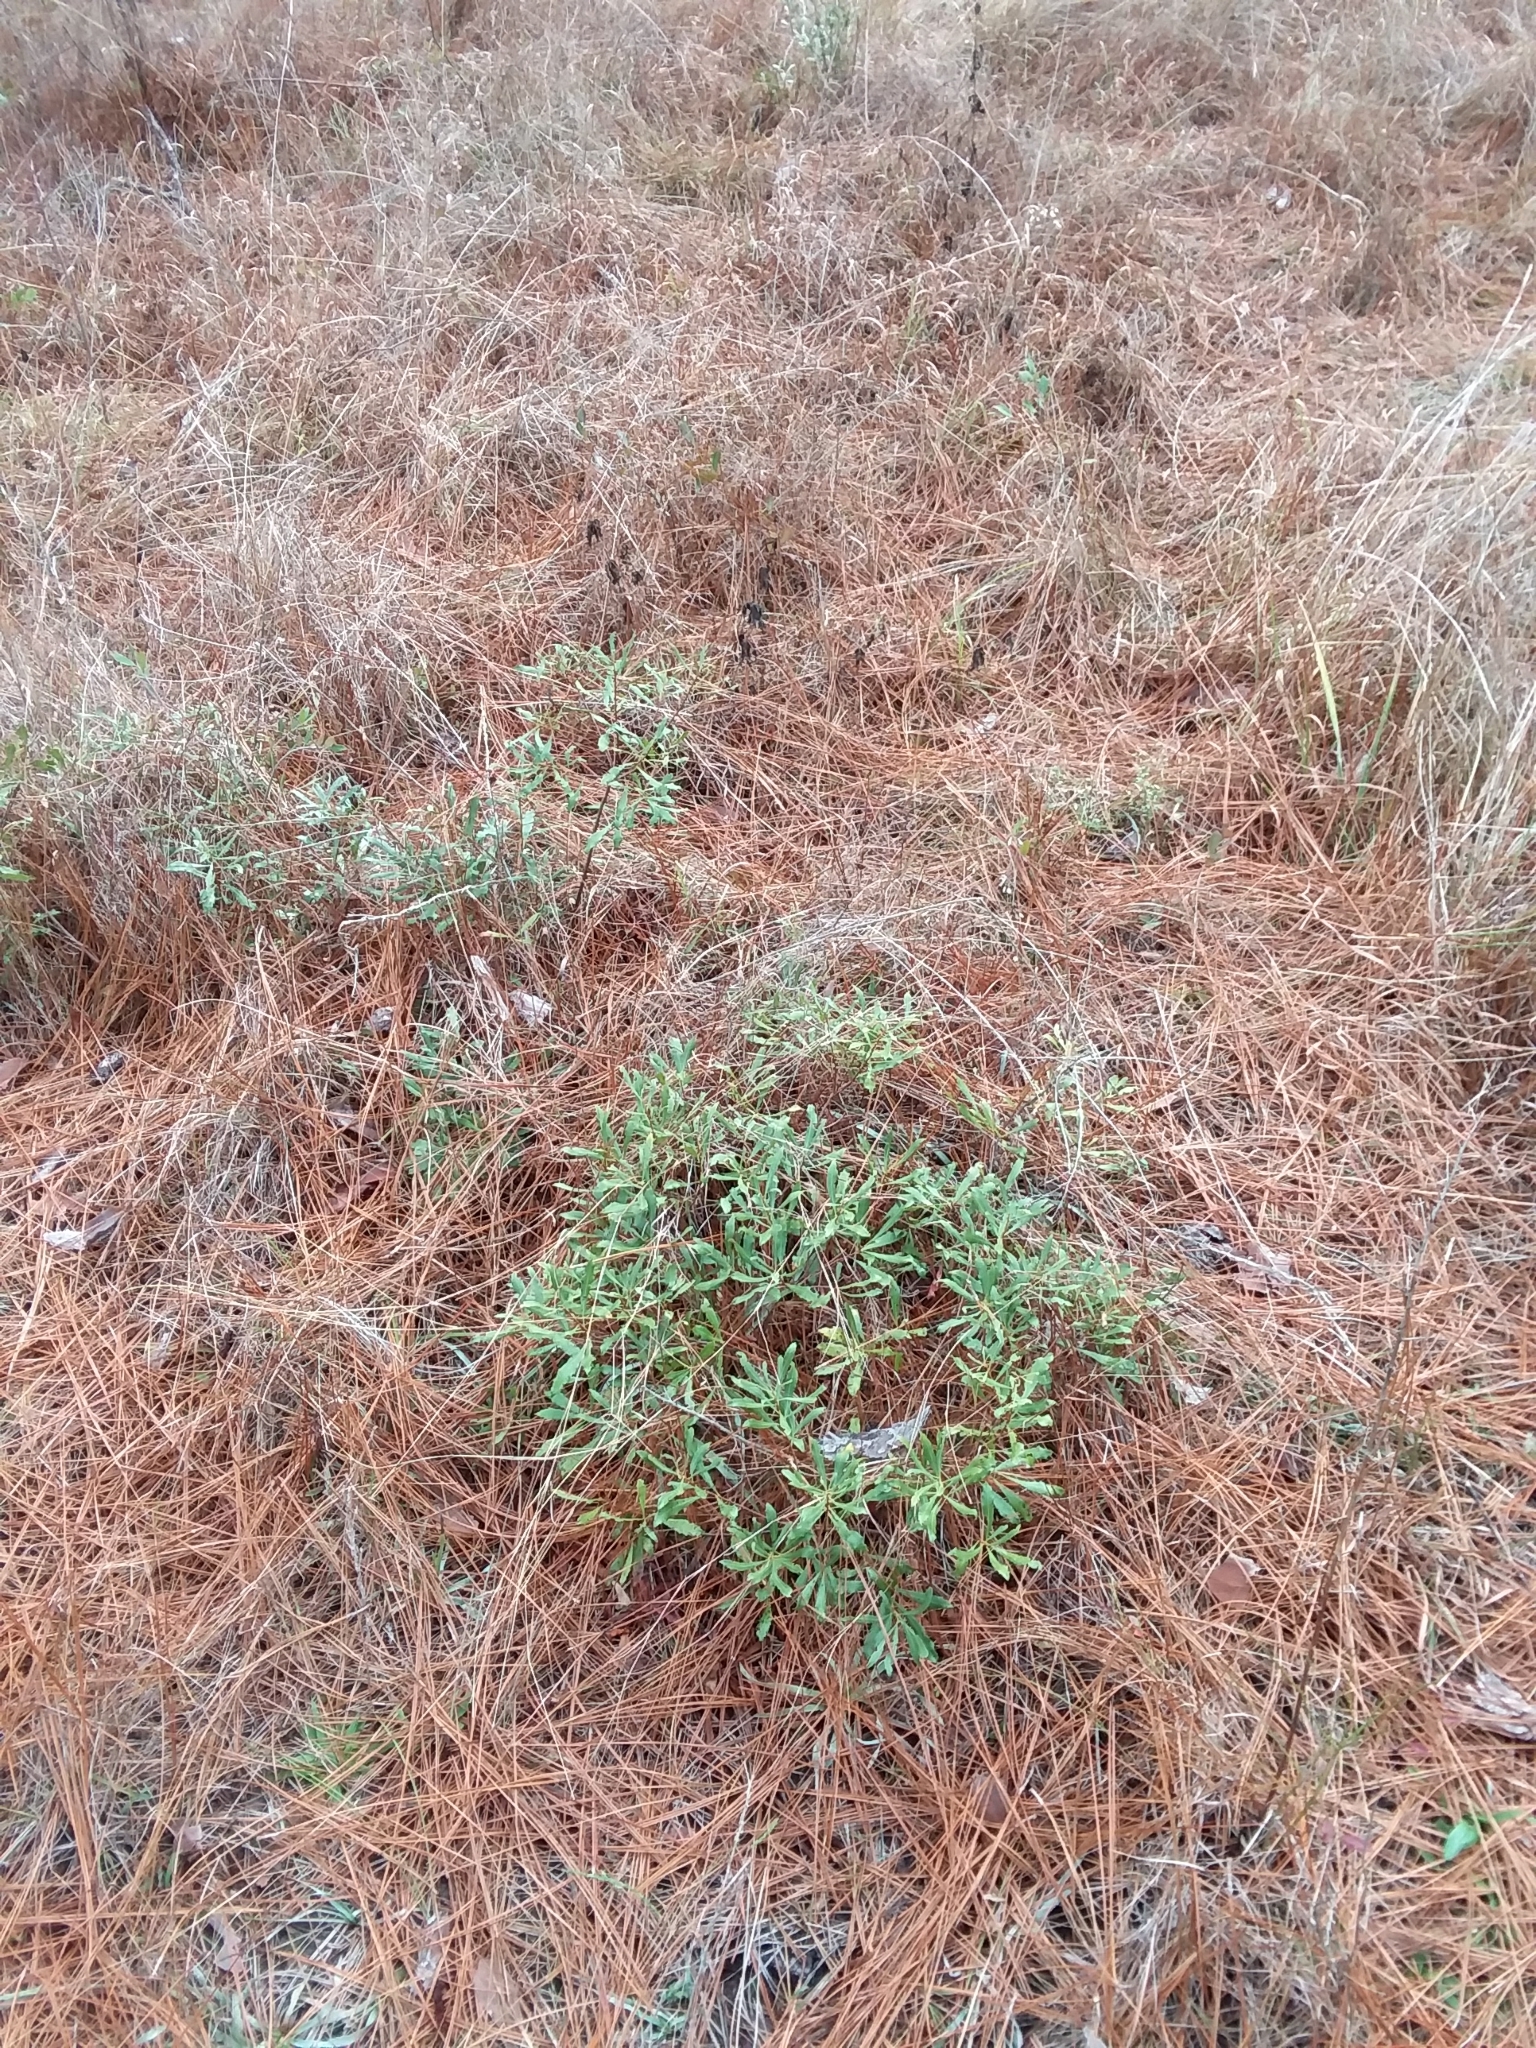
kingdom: Plantae
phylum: Tracheophyta
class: Magnoliopsida
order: Fagales
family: Myricaceae
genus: Morella
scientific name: Morella cerifera
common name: Wax myrtle
